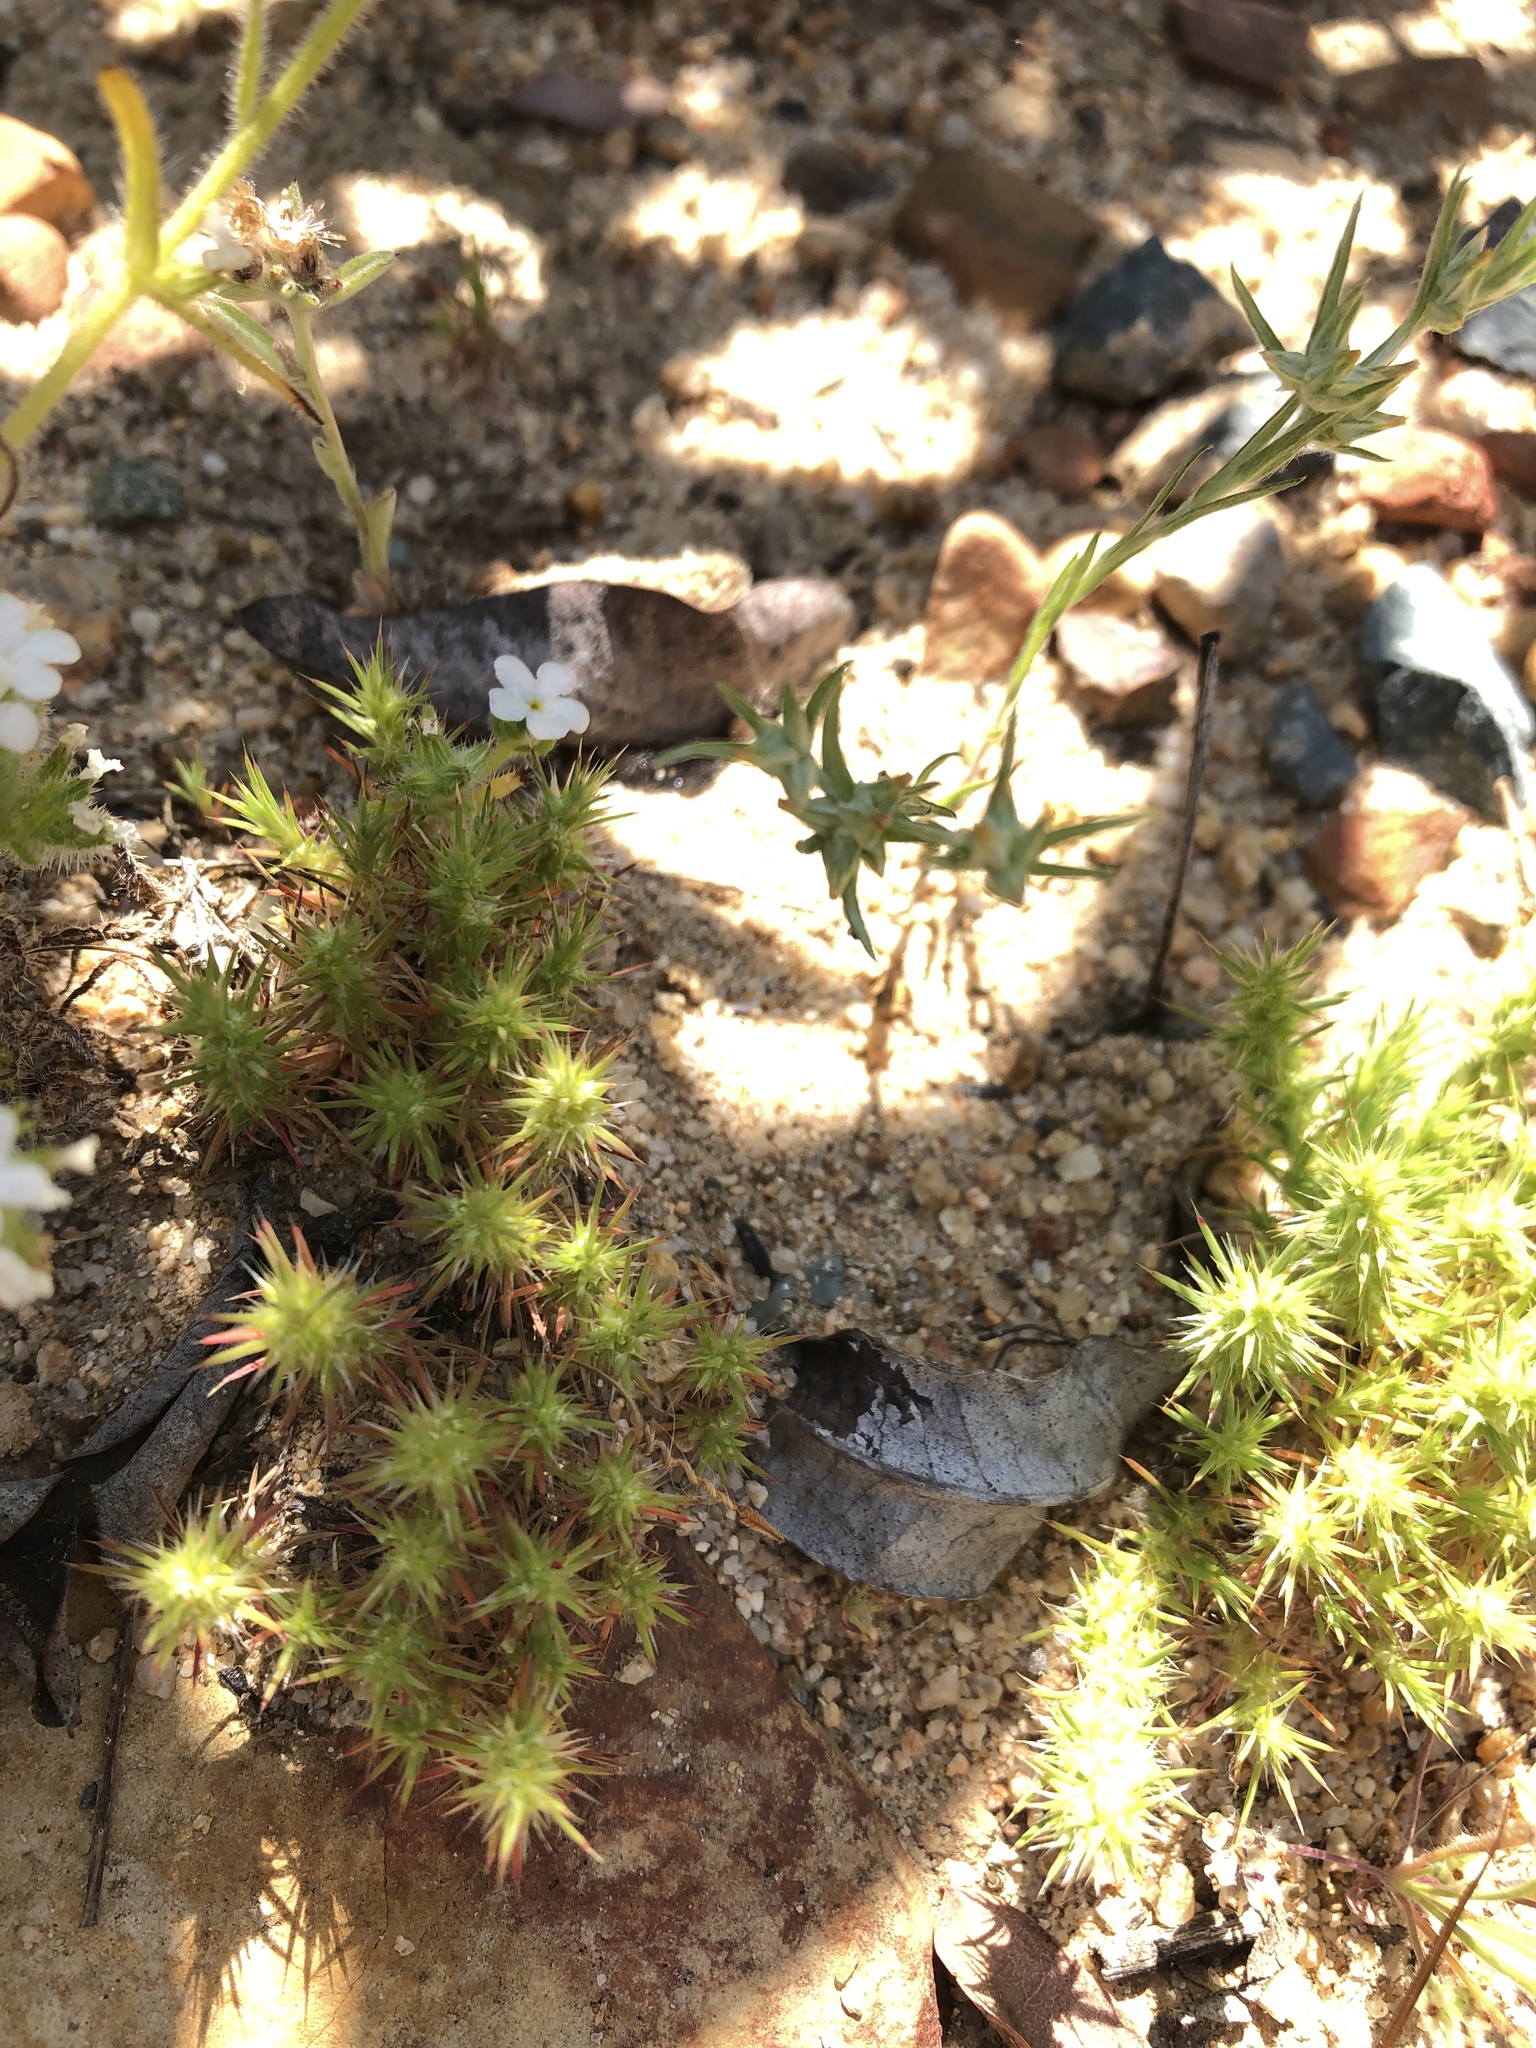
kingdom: Plantae
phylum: Tracheophyta
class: Magnoliopsida
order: Caryophyllales
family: Caryophyllaceae
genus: Cardionema
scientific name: Cardionema ramosissima
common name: Sandcarpet
